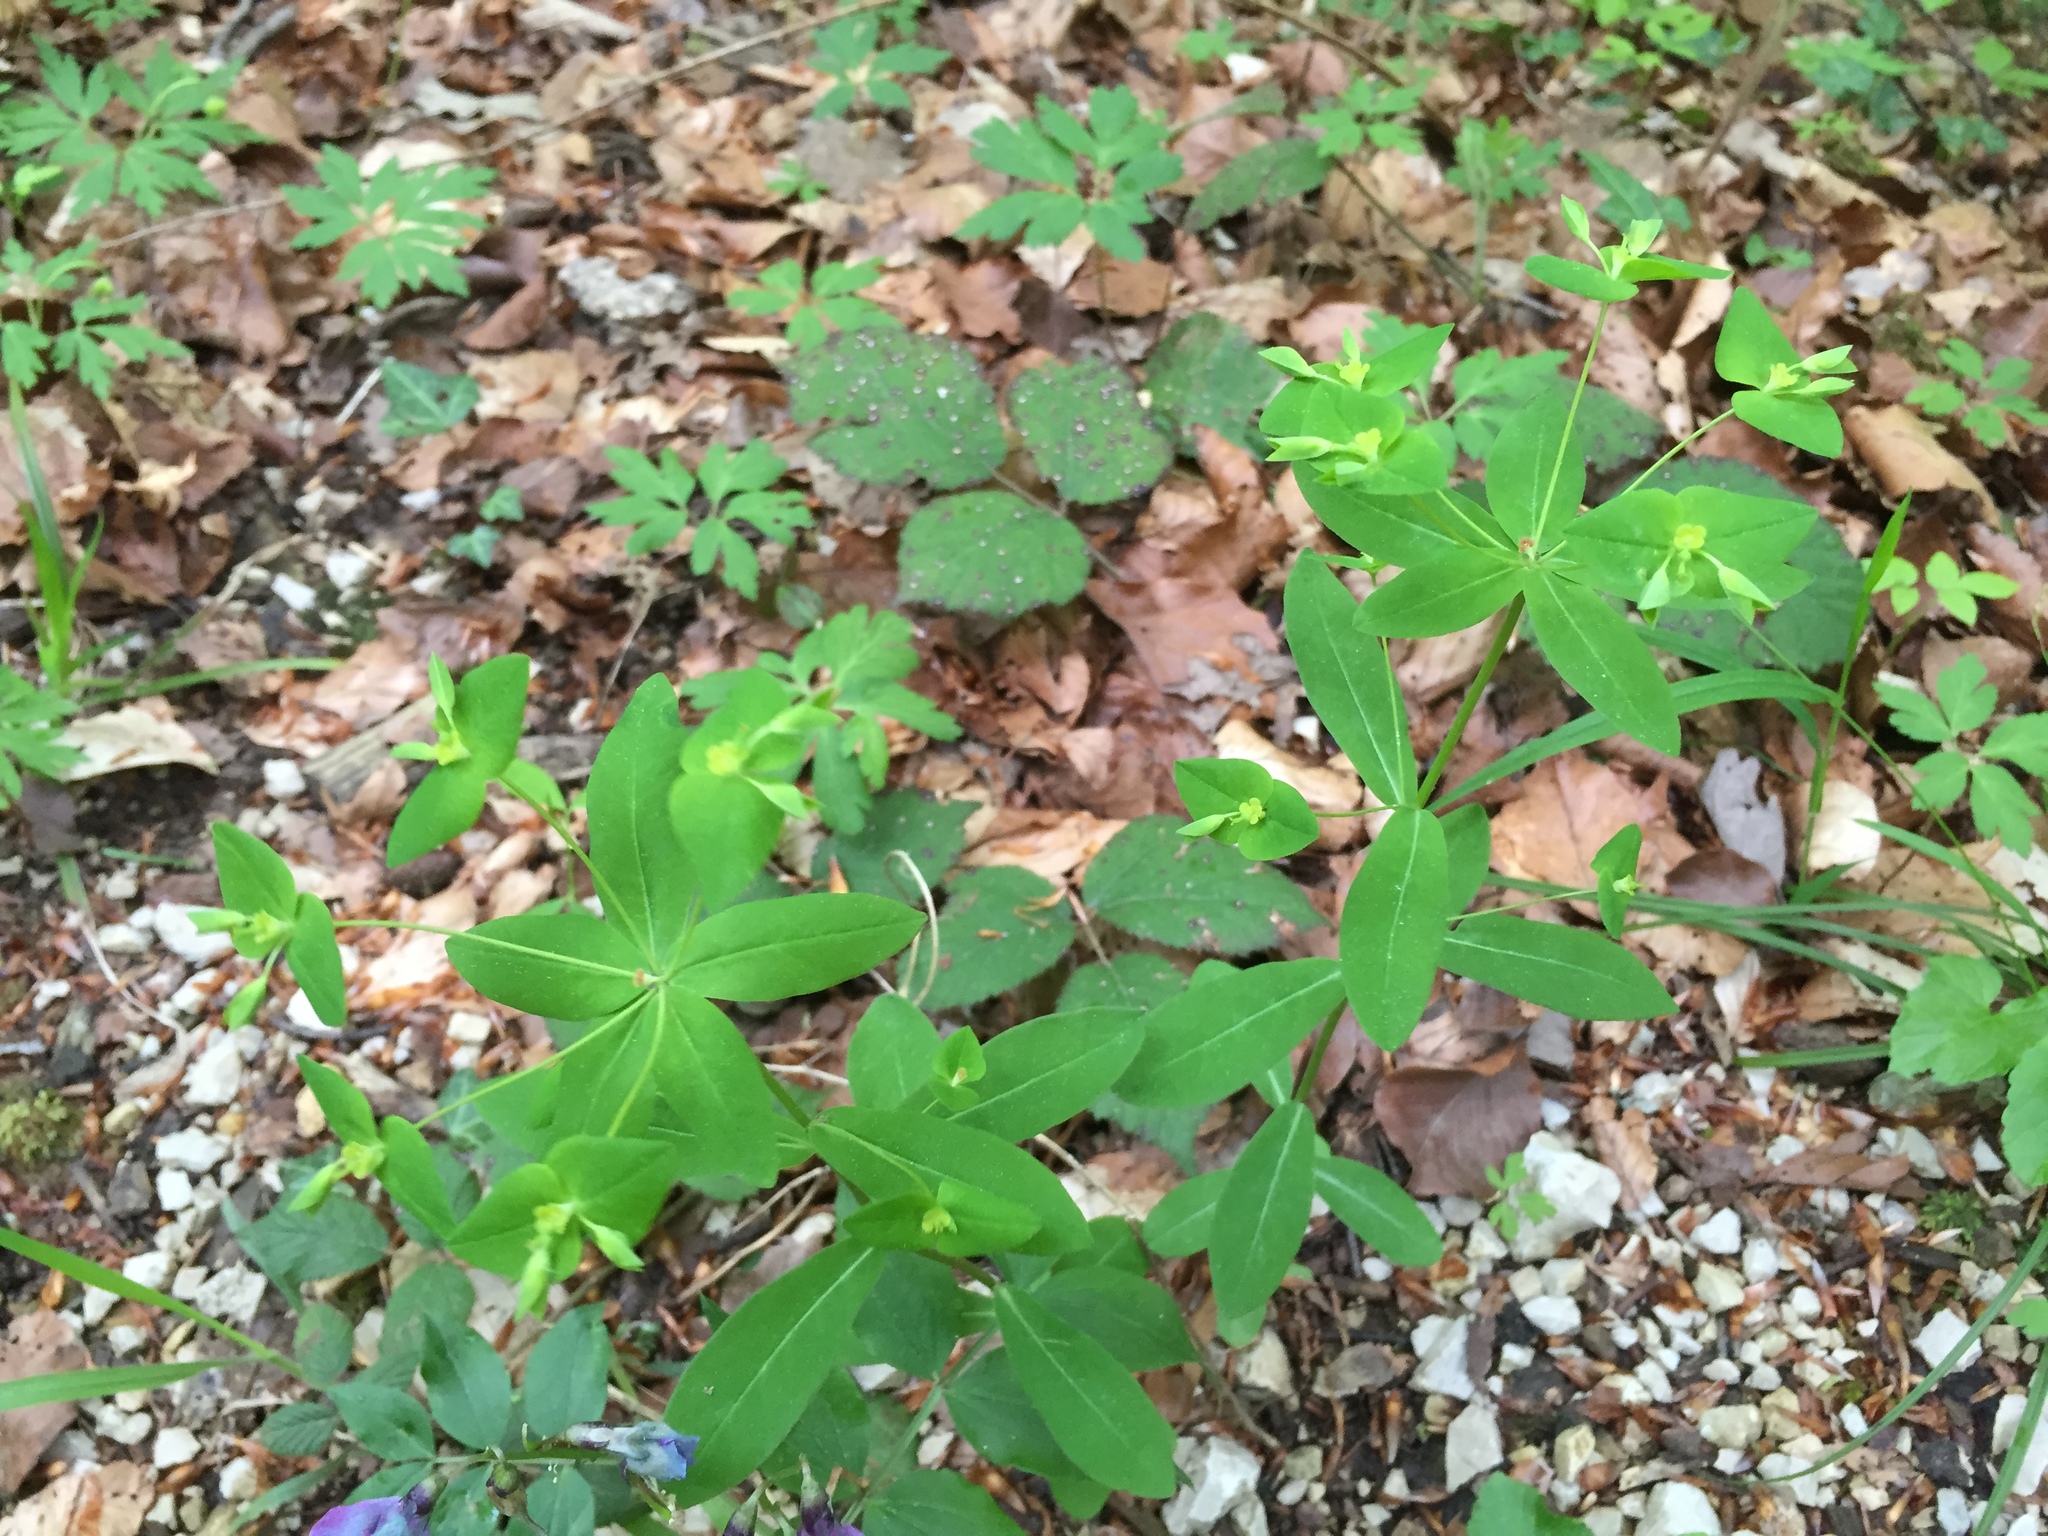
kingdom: Plantae
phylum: Tracheophyta
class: Magnoliopsida
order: Malpighiales
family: Euphorbiaceae
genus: Euphorbia
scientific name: Euphorbia dulcis
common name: Sweet spurge
